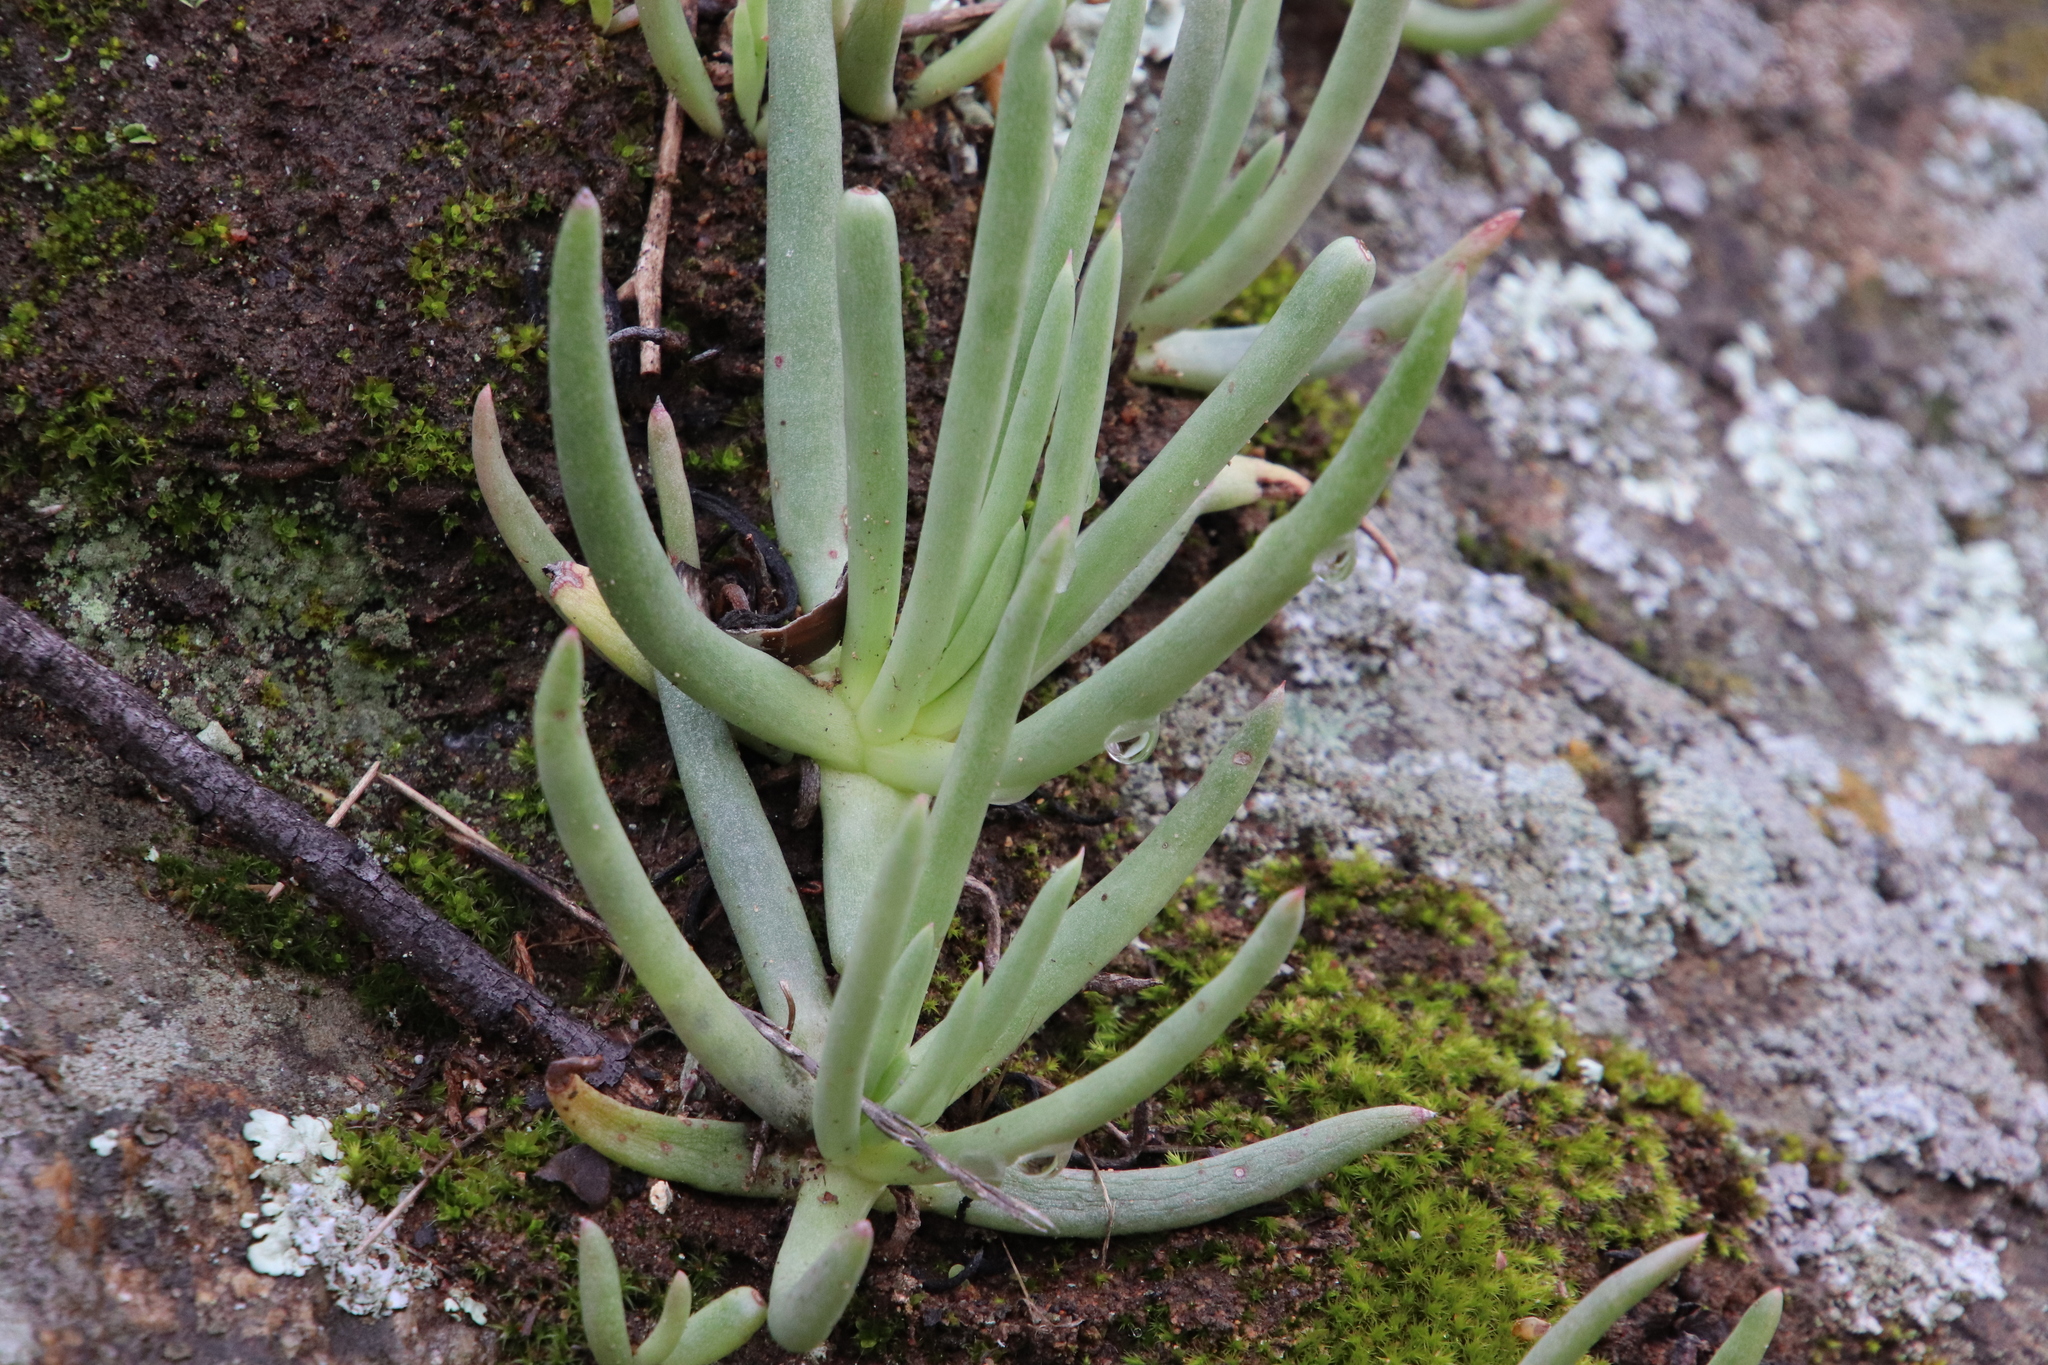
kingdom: Plantae
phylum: Tracheophyta
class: Magnoliopsida
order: Saxifragales
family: Crassulaceae
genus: Dudleya
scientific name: Dudleya edulis
